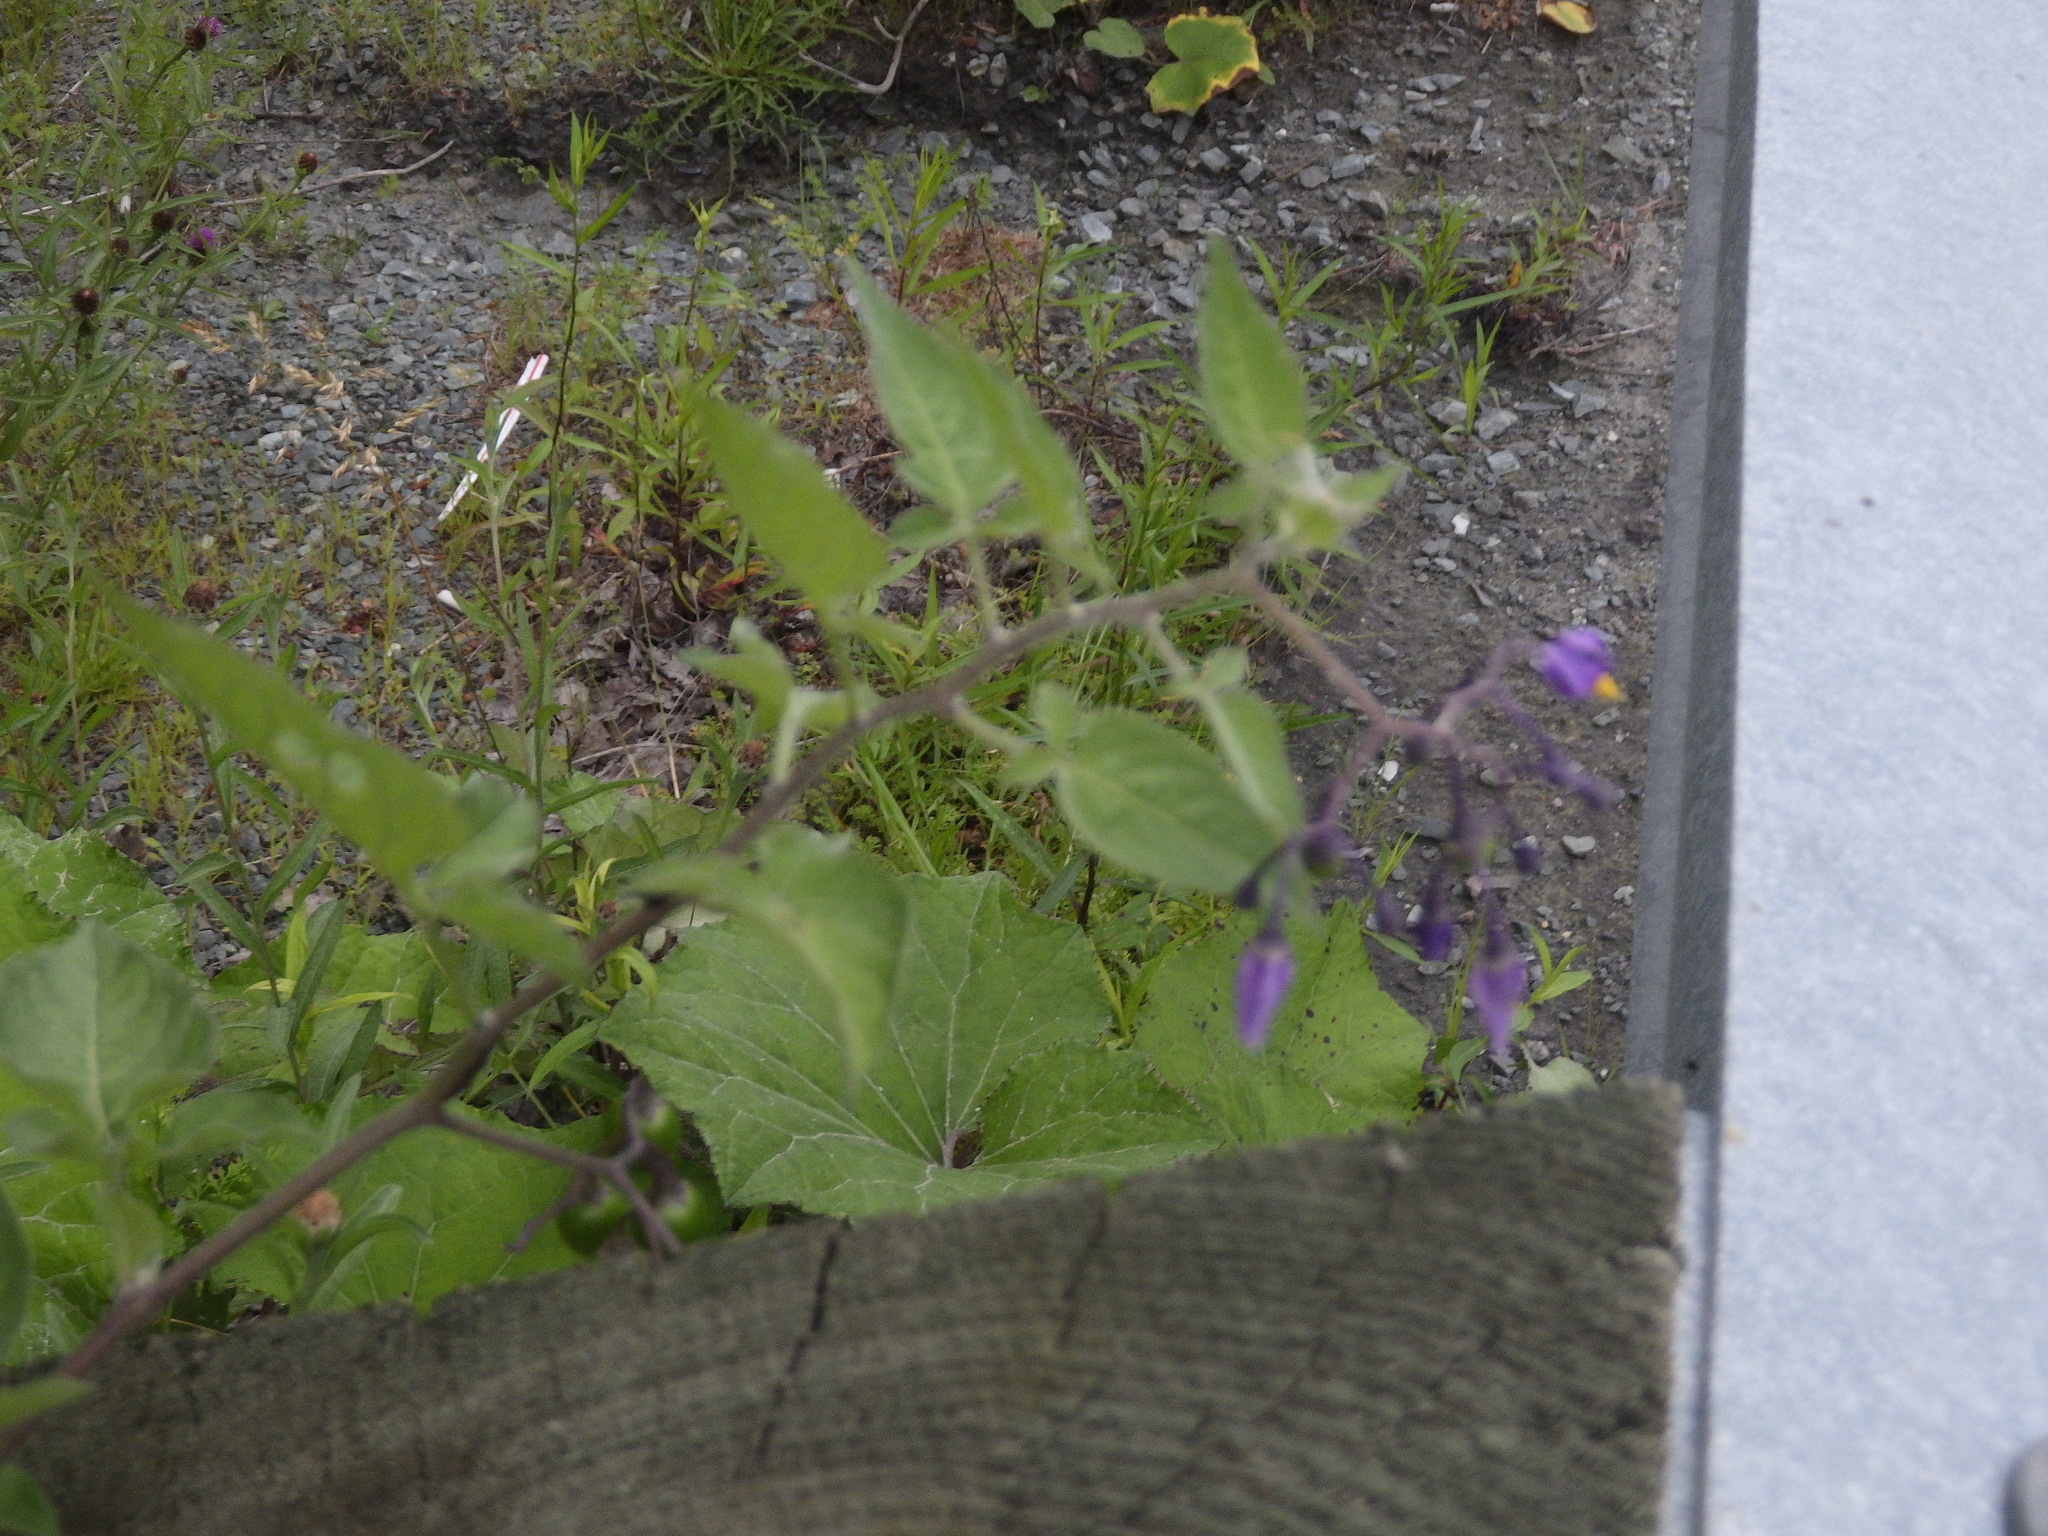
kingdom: Plantae
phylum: Tracheophyta
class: Magnoliopsida
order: Solanales
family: Solanaceae
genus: Solanum
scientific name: Solanum dulcamara
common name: Climbing nightshade
